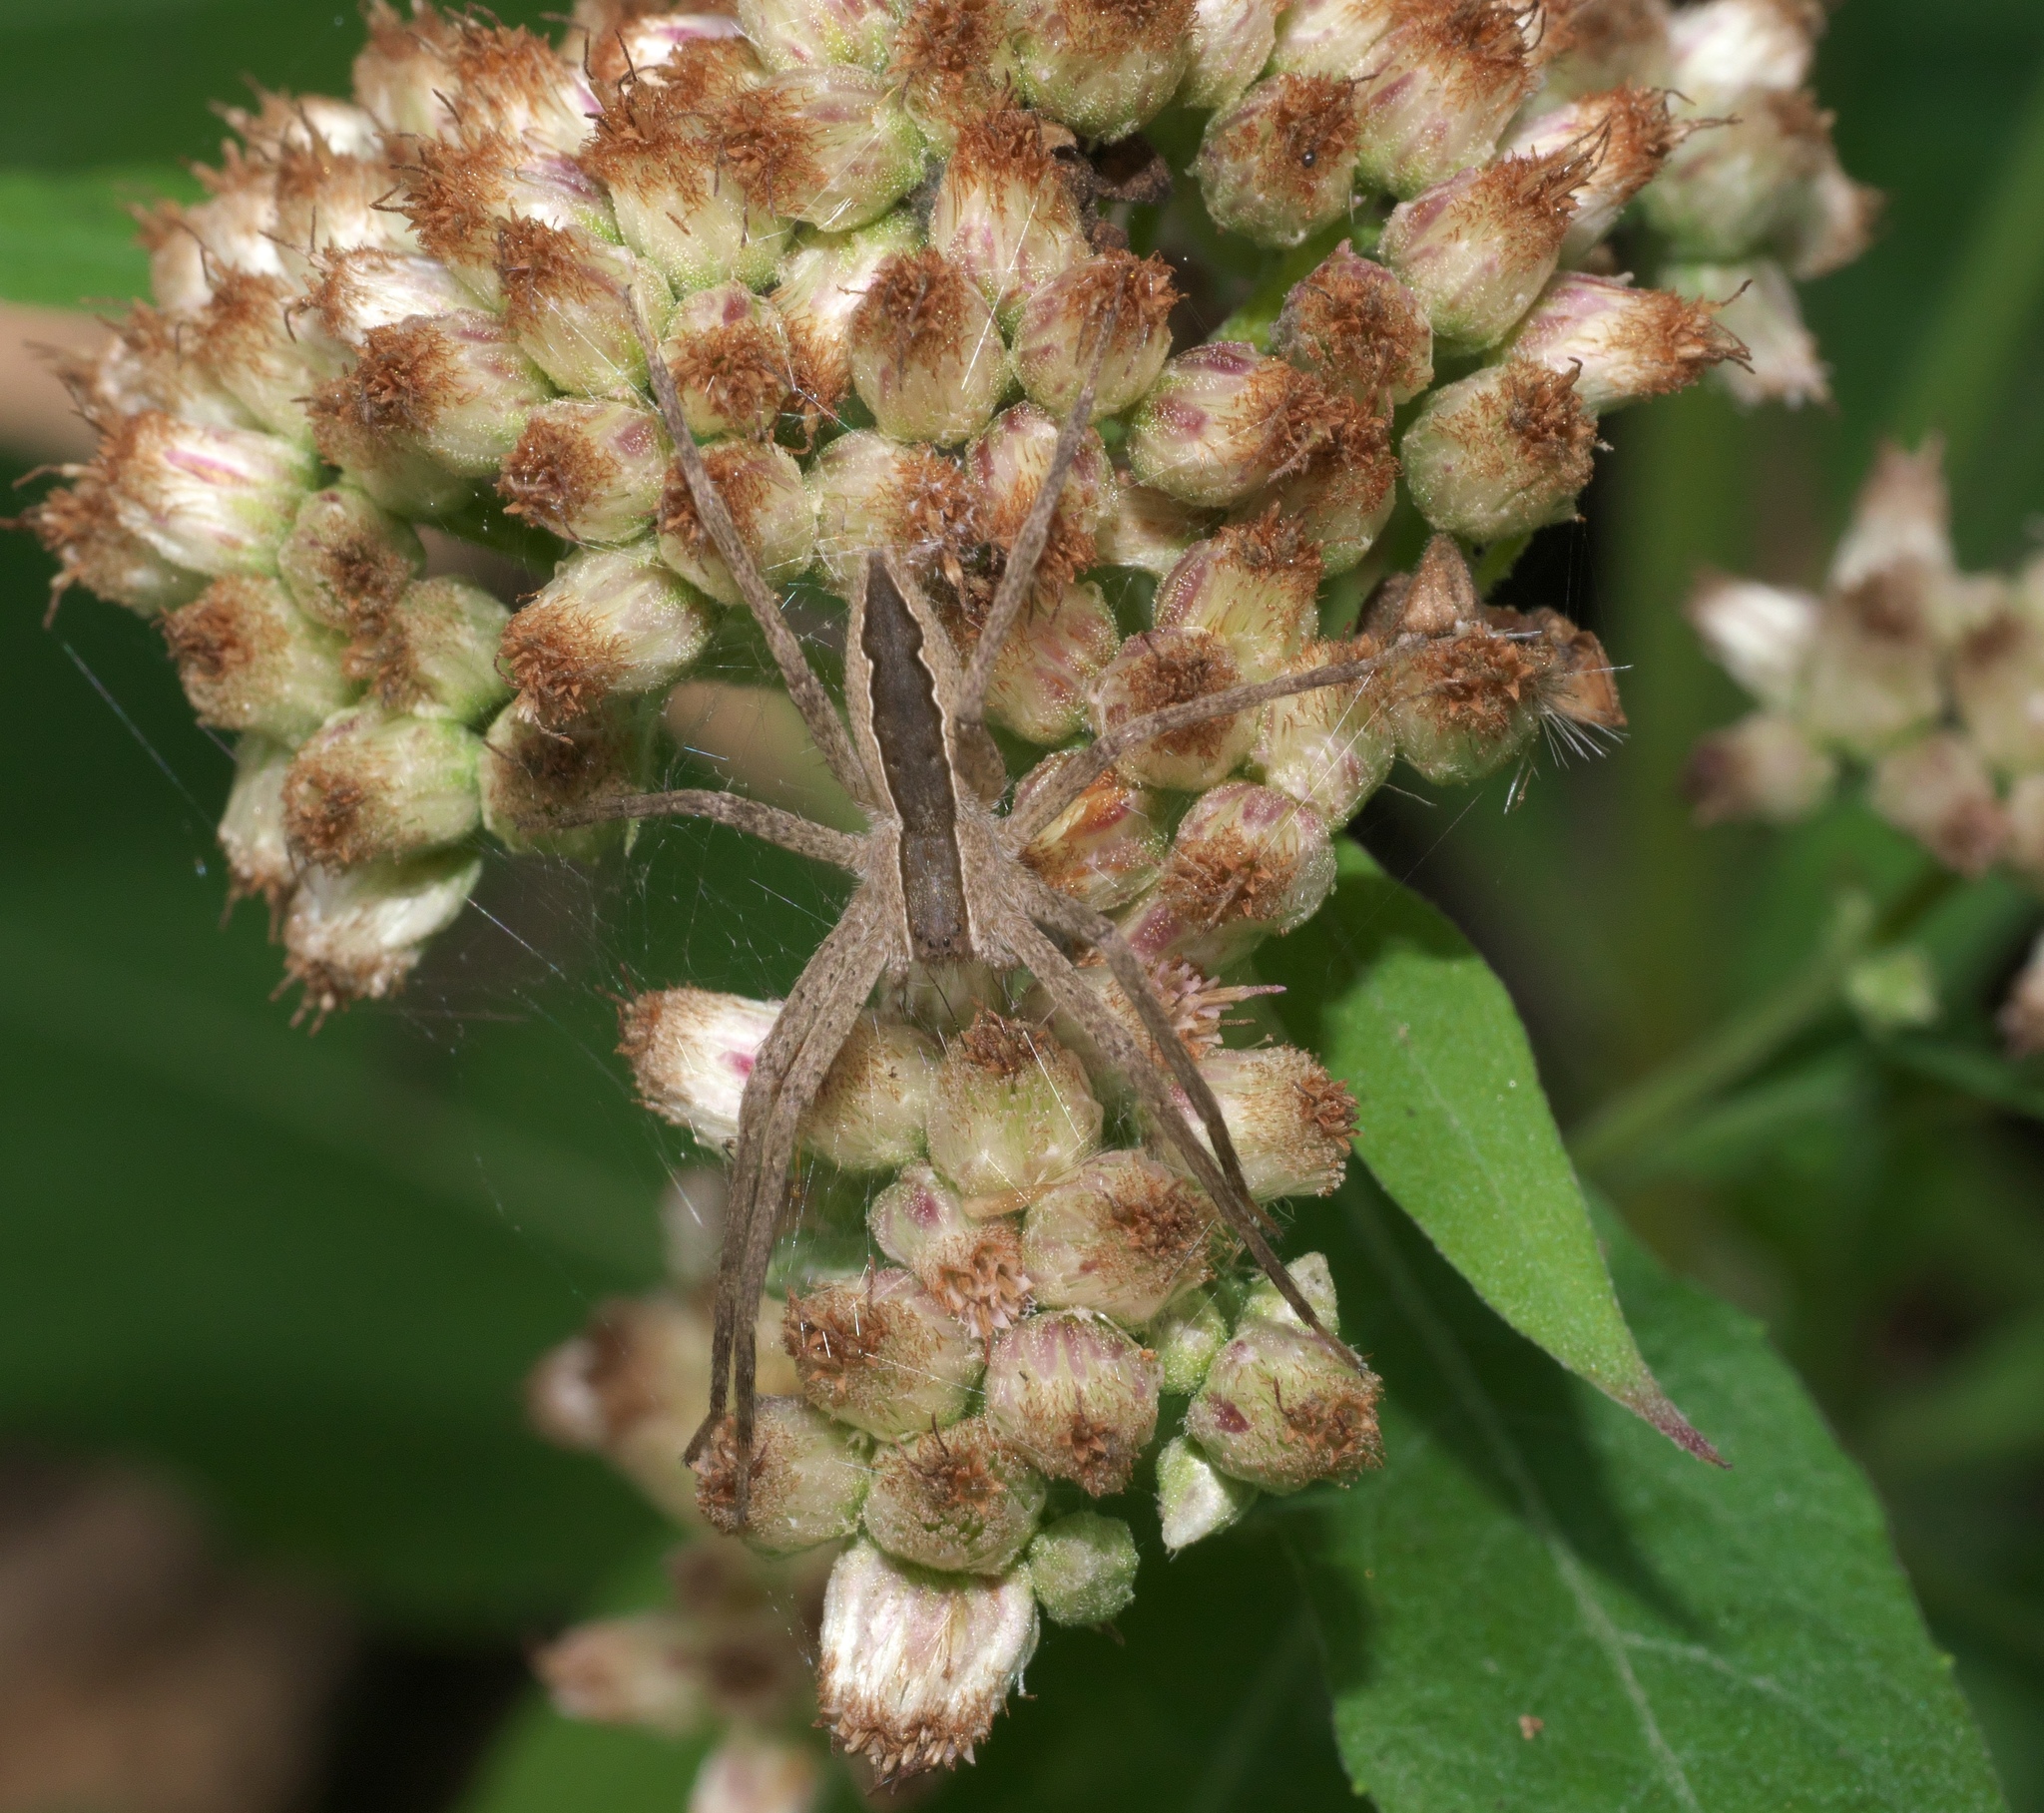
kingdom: Animalia
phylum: Arthropoda
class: Arachnida
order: Araneae
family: Pisauridae
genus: Pisaurina
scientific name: Pisaurina mira
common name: American nursery web spider
